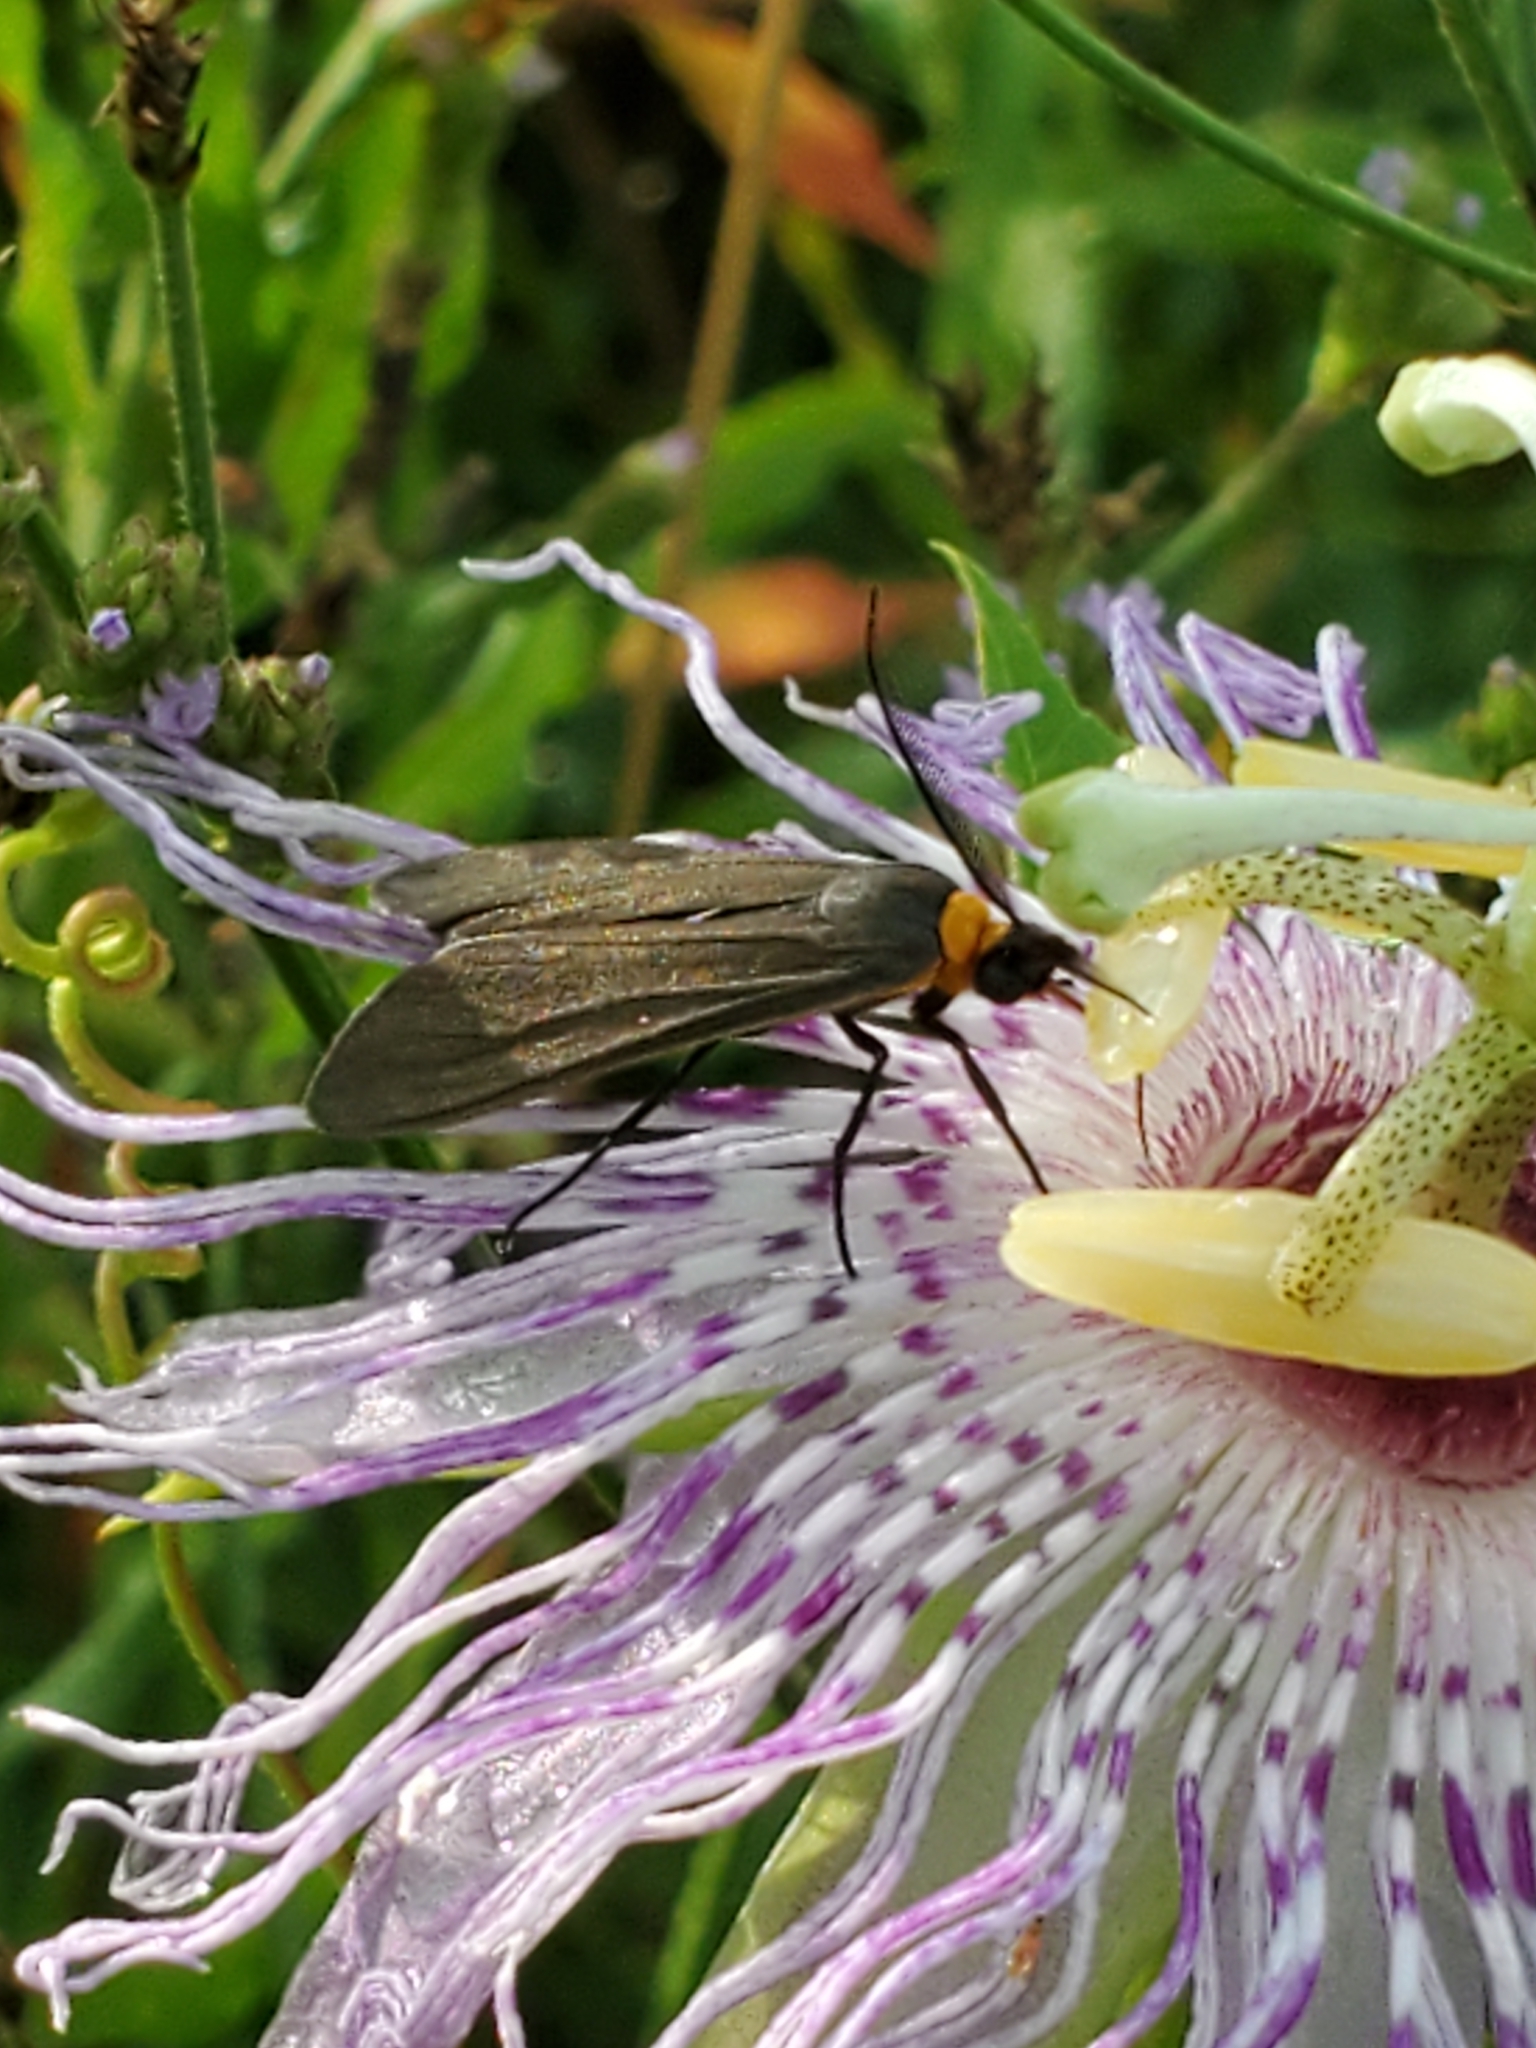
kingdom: Animalia
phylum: Arthropoda
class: Insecta
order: Lepidoptera
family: Erebidae
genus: Cisseps
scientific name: Cisseps fulvicollis
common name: Yellow-collared scape moth
